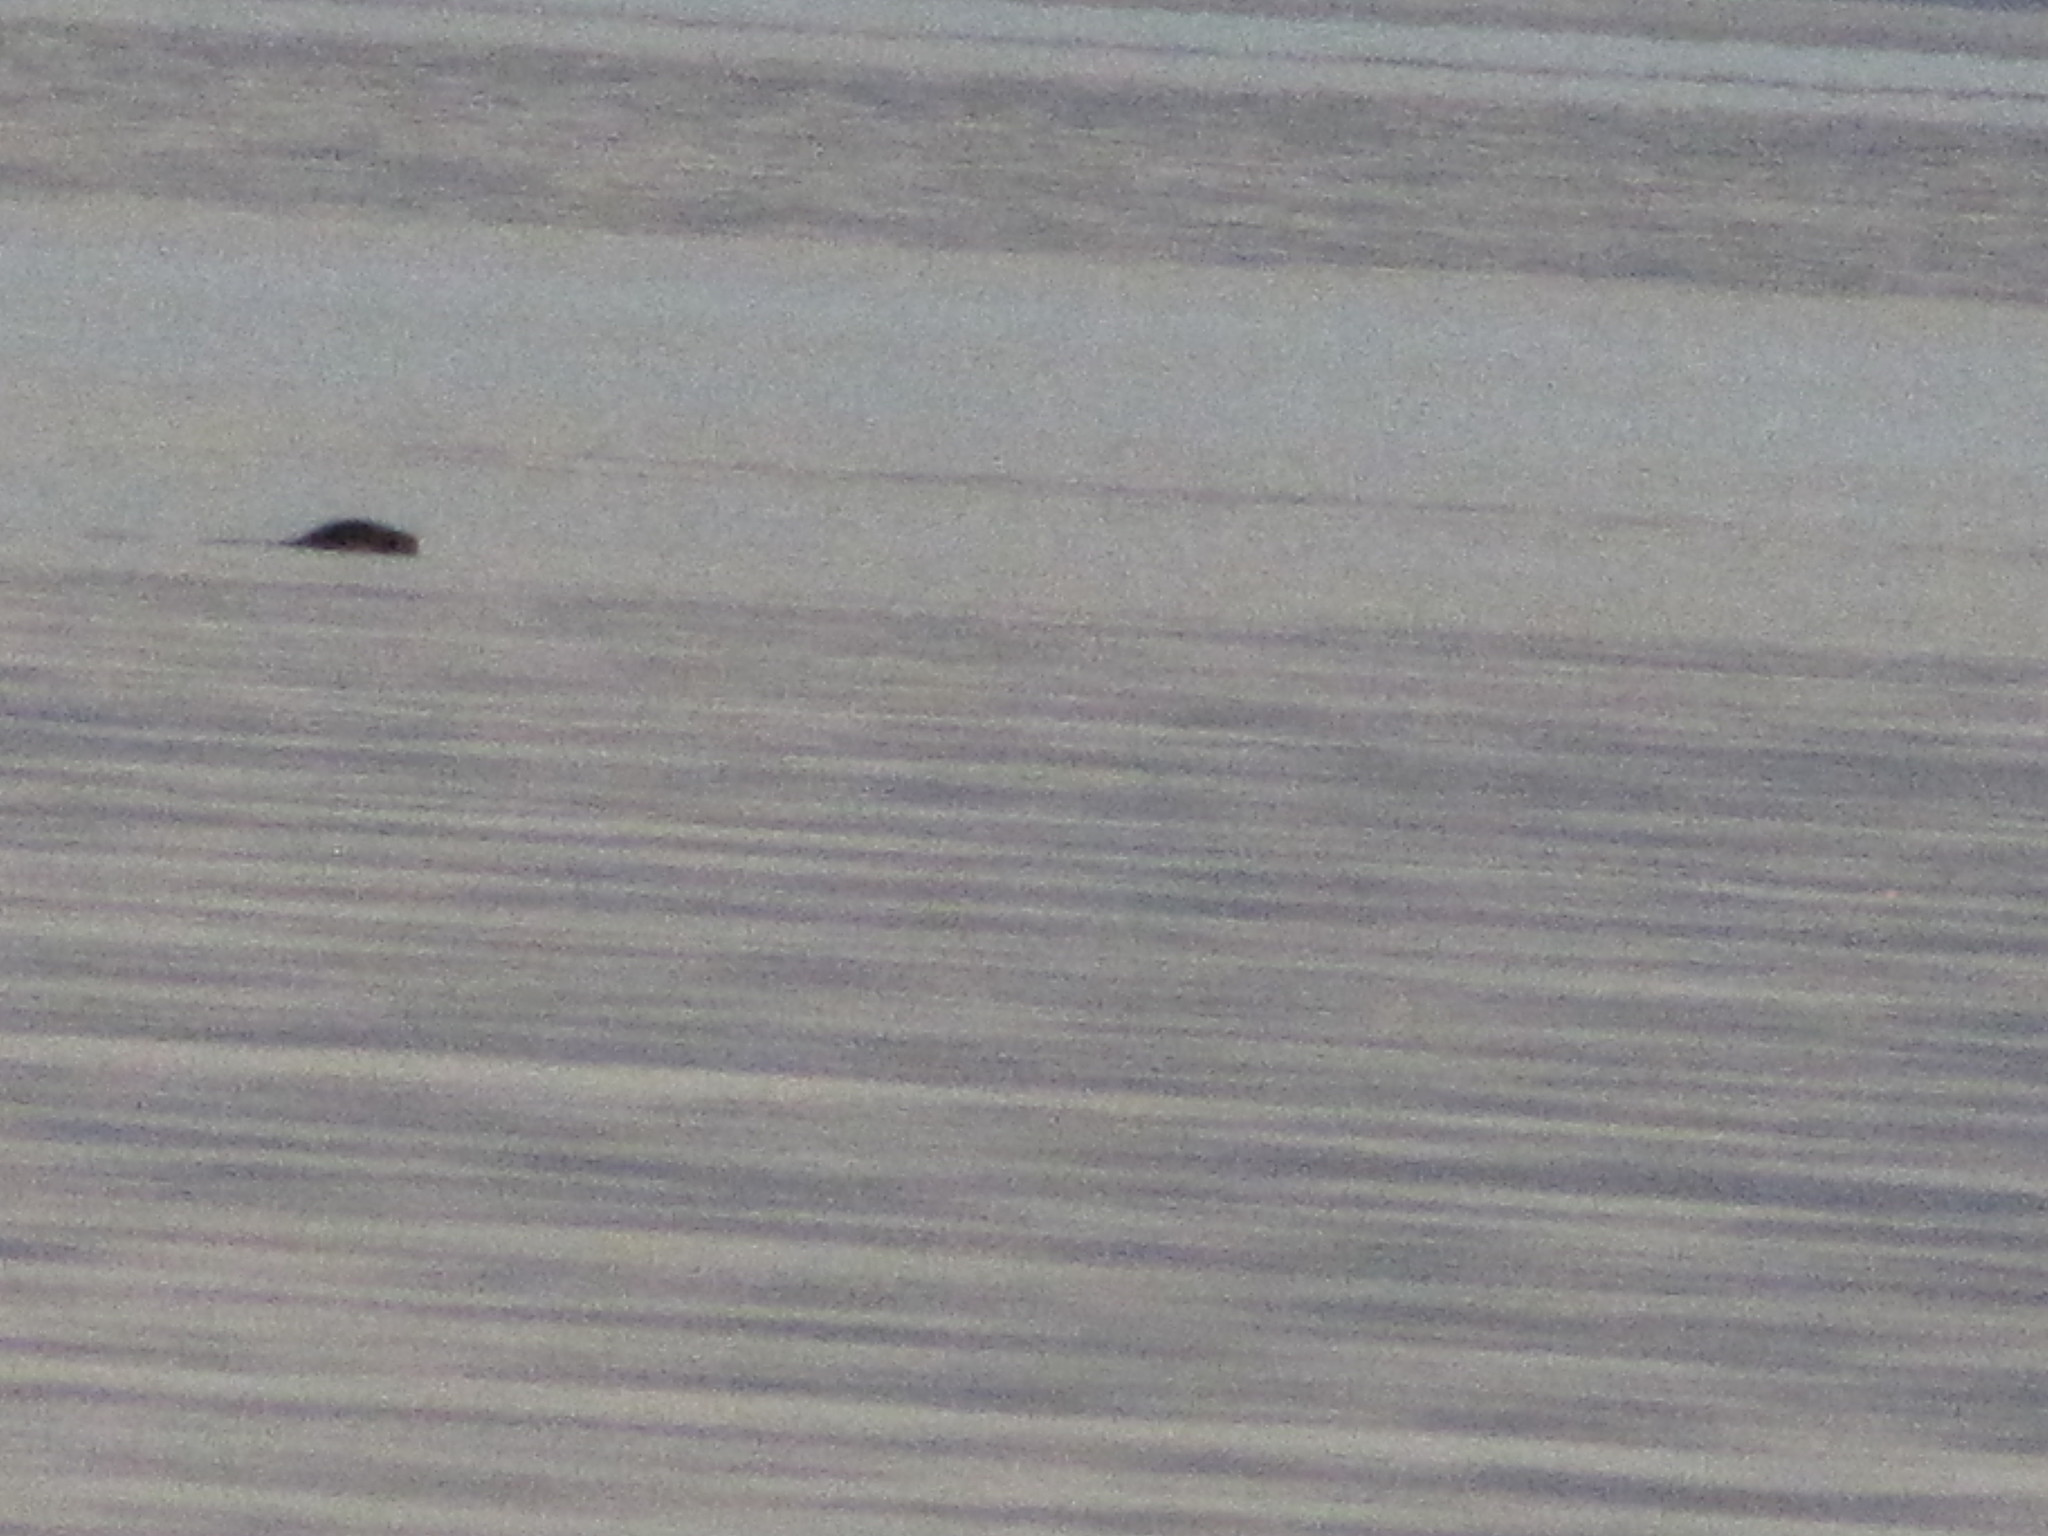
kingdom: Animalia
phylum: Chordata
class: Mammalia
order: Carnivora
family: Phocidae
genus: Phoca
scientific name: Phoca vitulina
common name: Harbor seal
